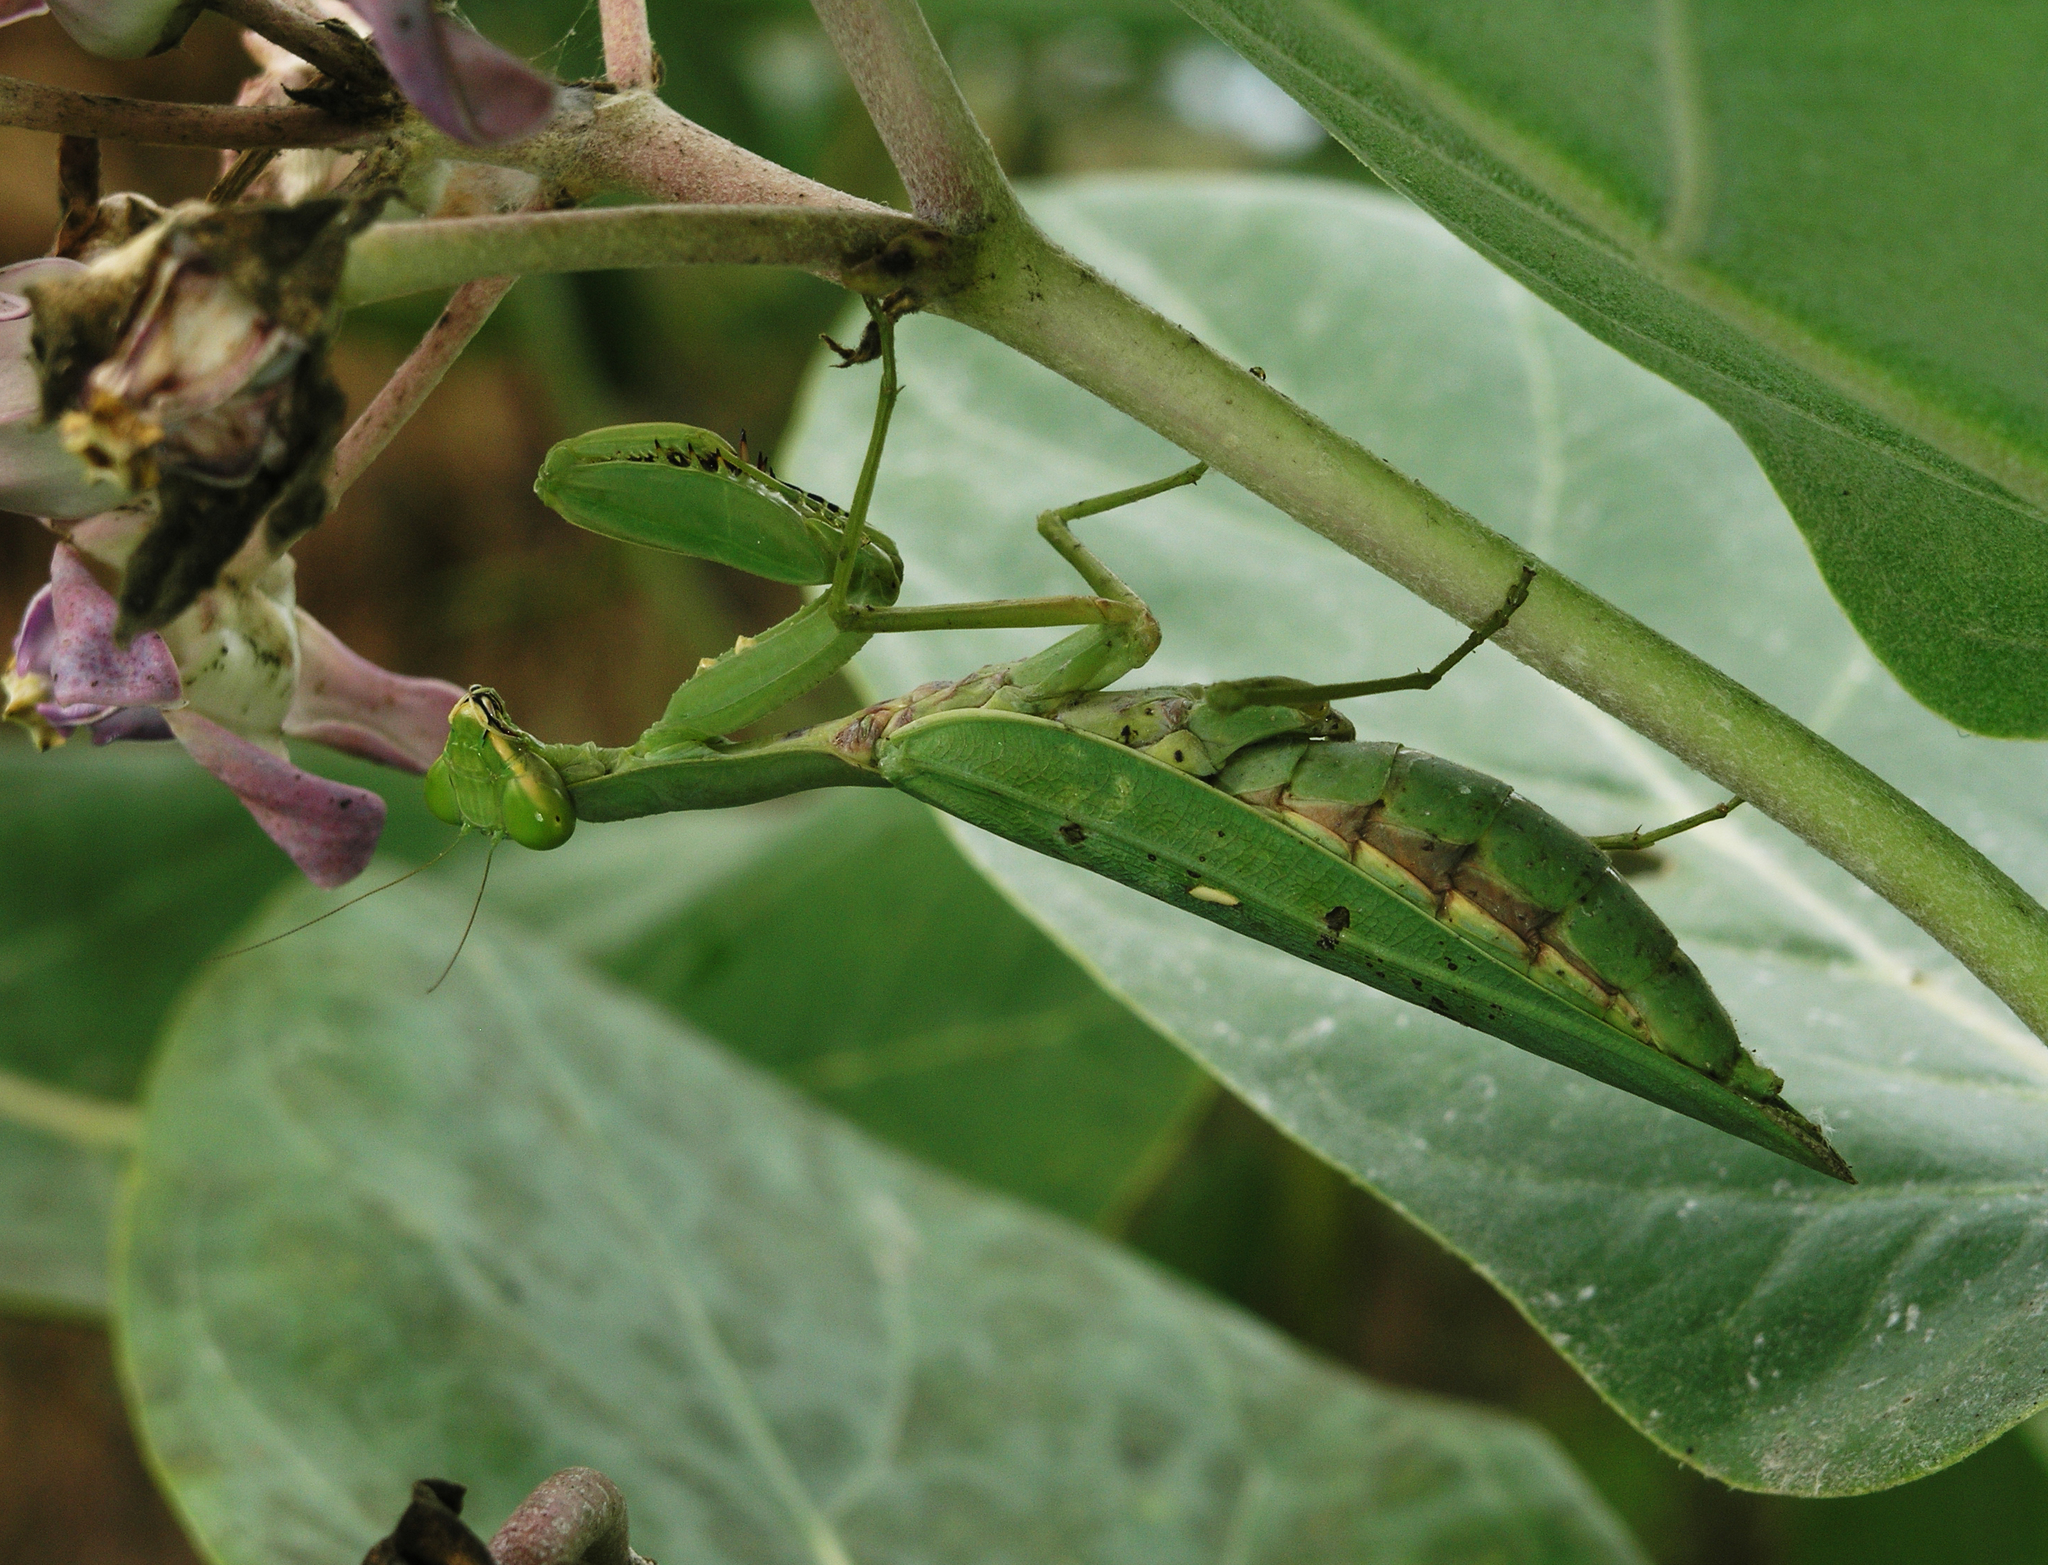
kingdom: Animalia
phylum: Arthropoda
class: Insecta
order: Mantodea
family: Mantidae
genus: Hierodula
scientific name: Hierodula patellifera
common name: Asian mantis
